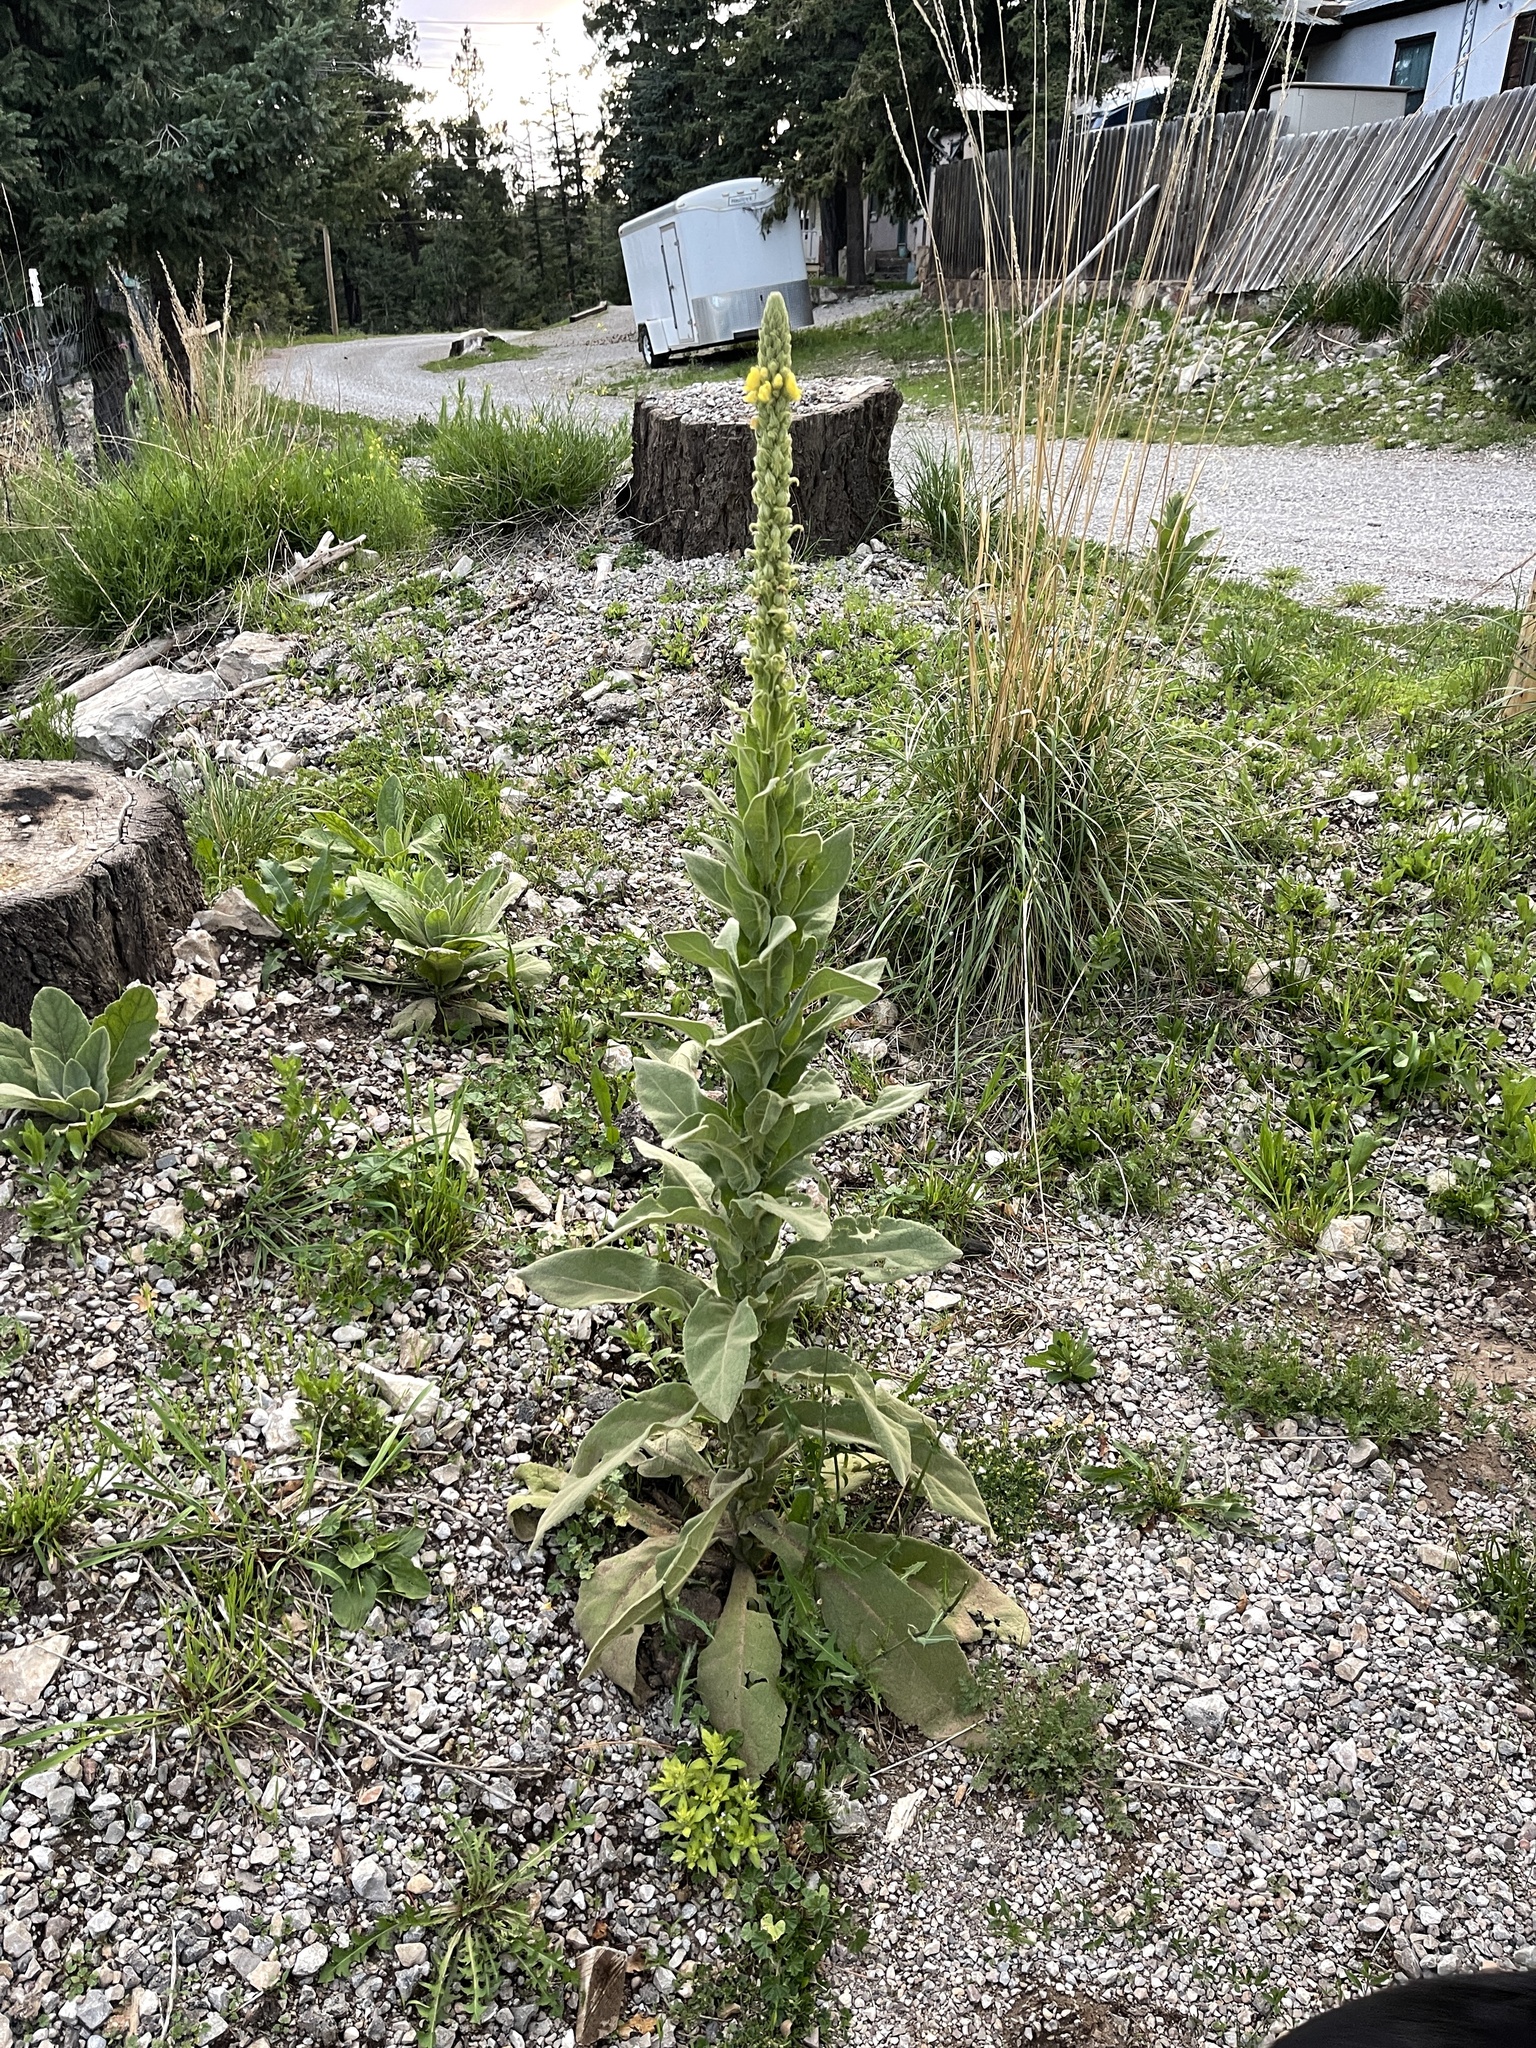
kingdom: Plantae
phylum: Tracheophyta
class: Magnoliopsida
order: Lamiales
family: Scrophulariaceae
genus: Verbascum
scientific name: Verbascum thapsus
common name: Common mullein
